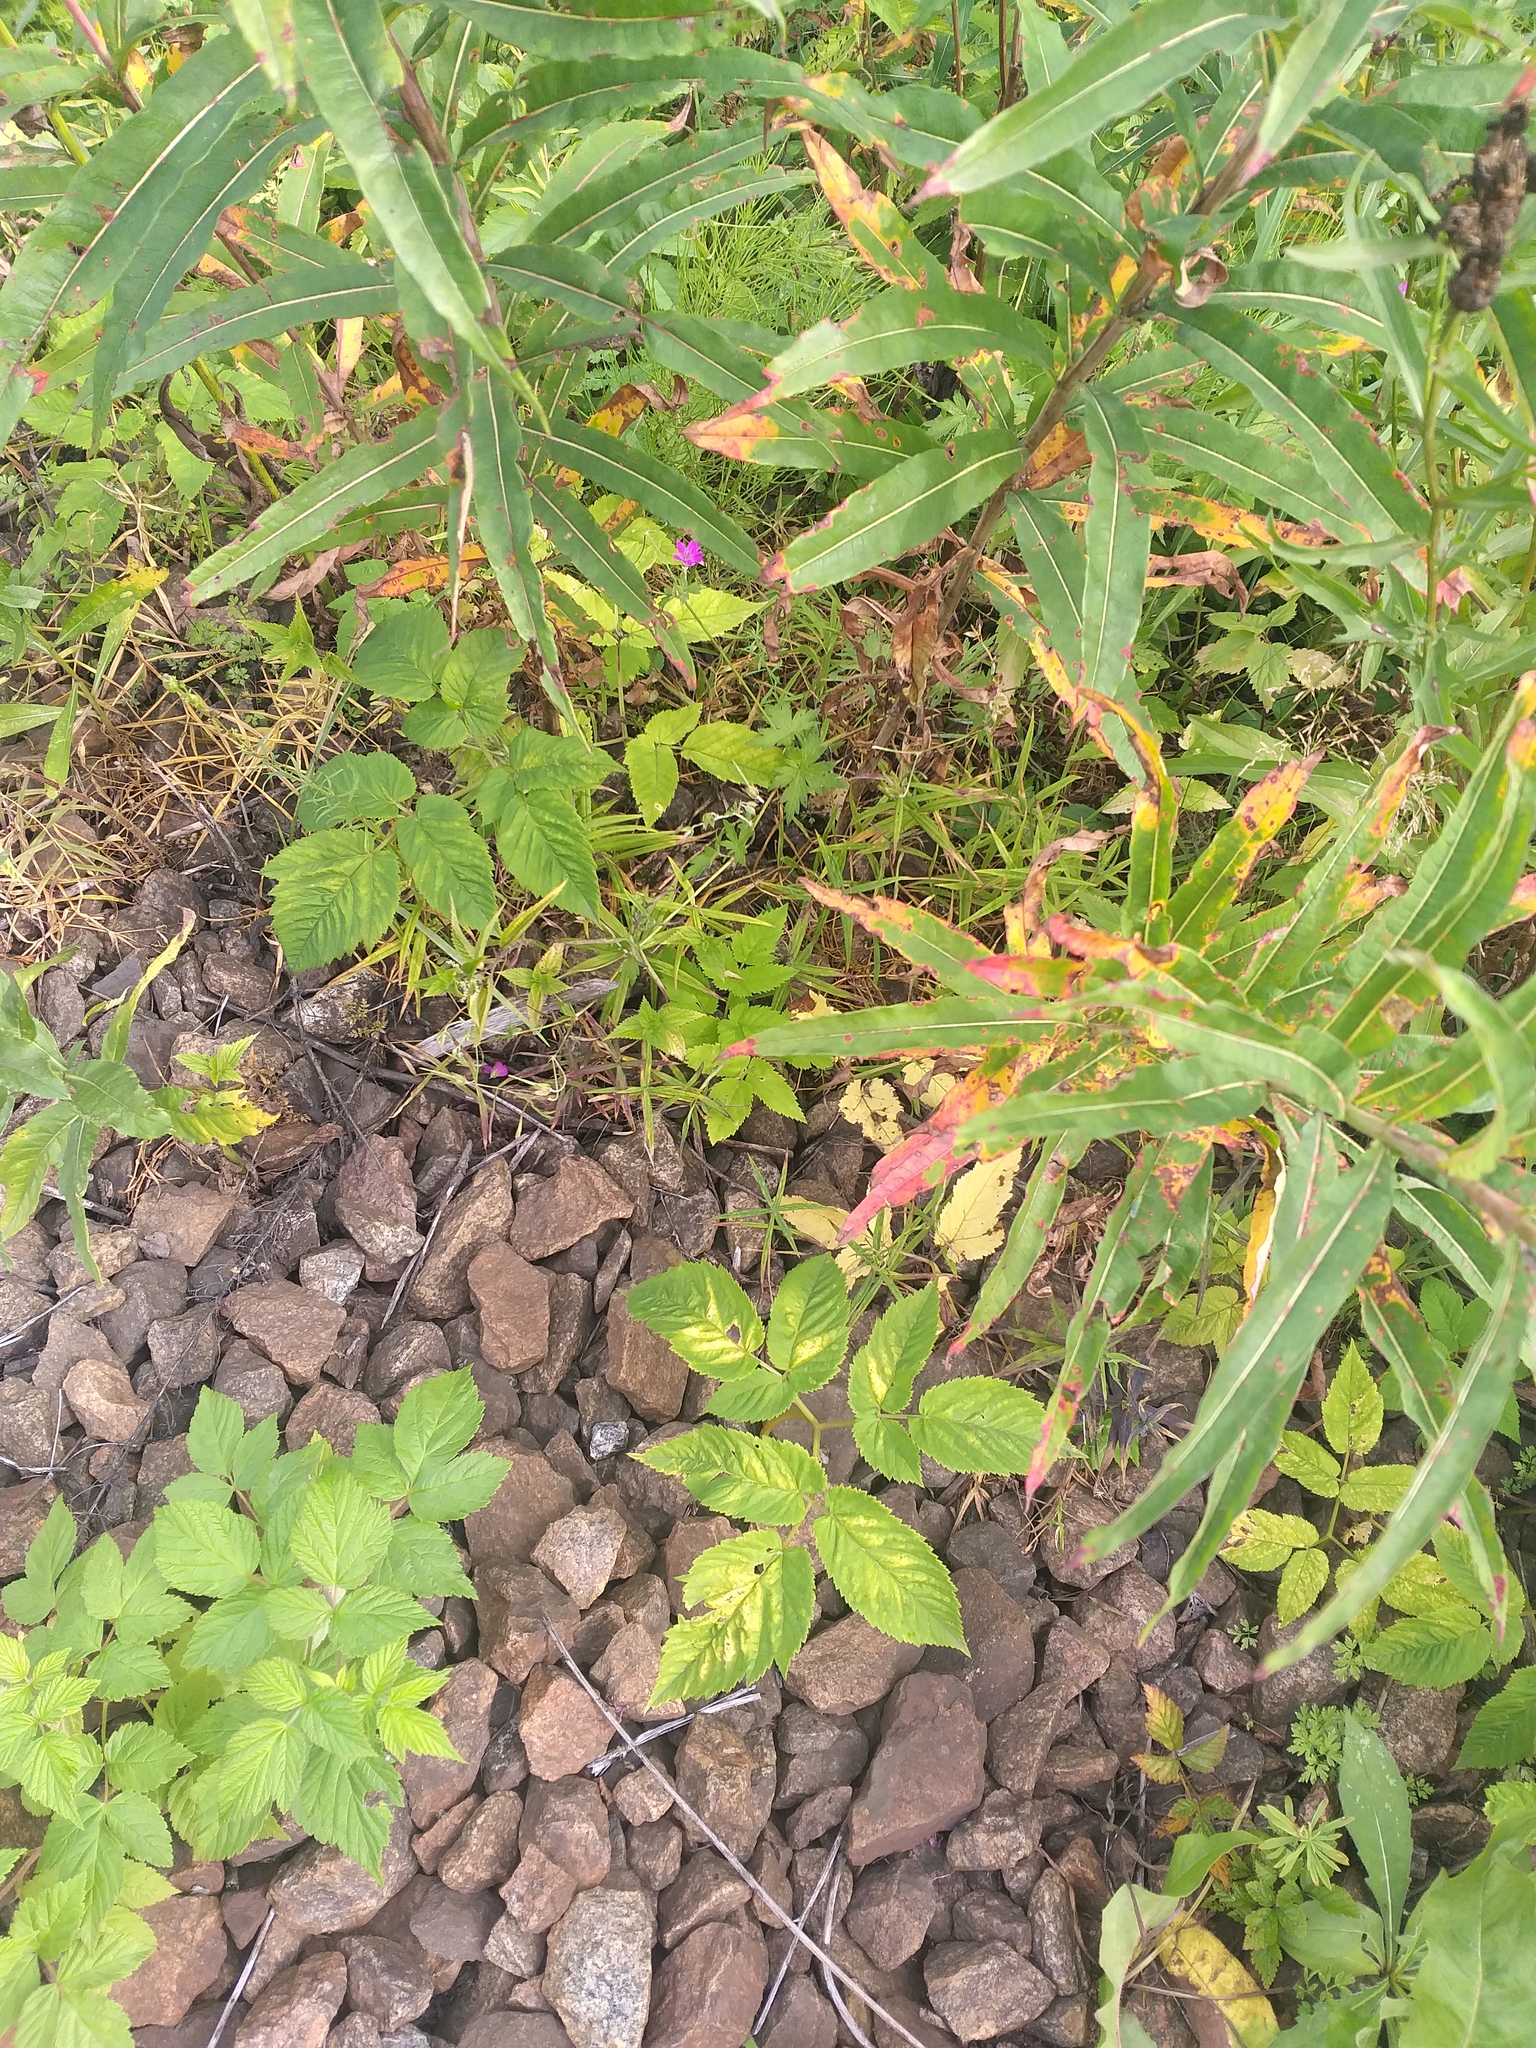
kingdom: Plantae
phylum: Tracheophyta
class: Magnoliopsida
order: Caryophyllales
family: Caryophyllaceae
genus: Rabelera
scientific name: Rabelera holostea
